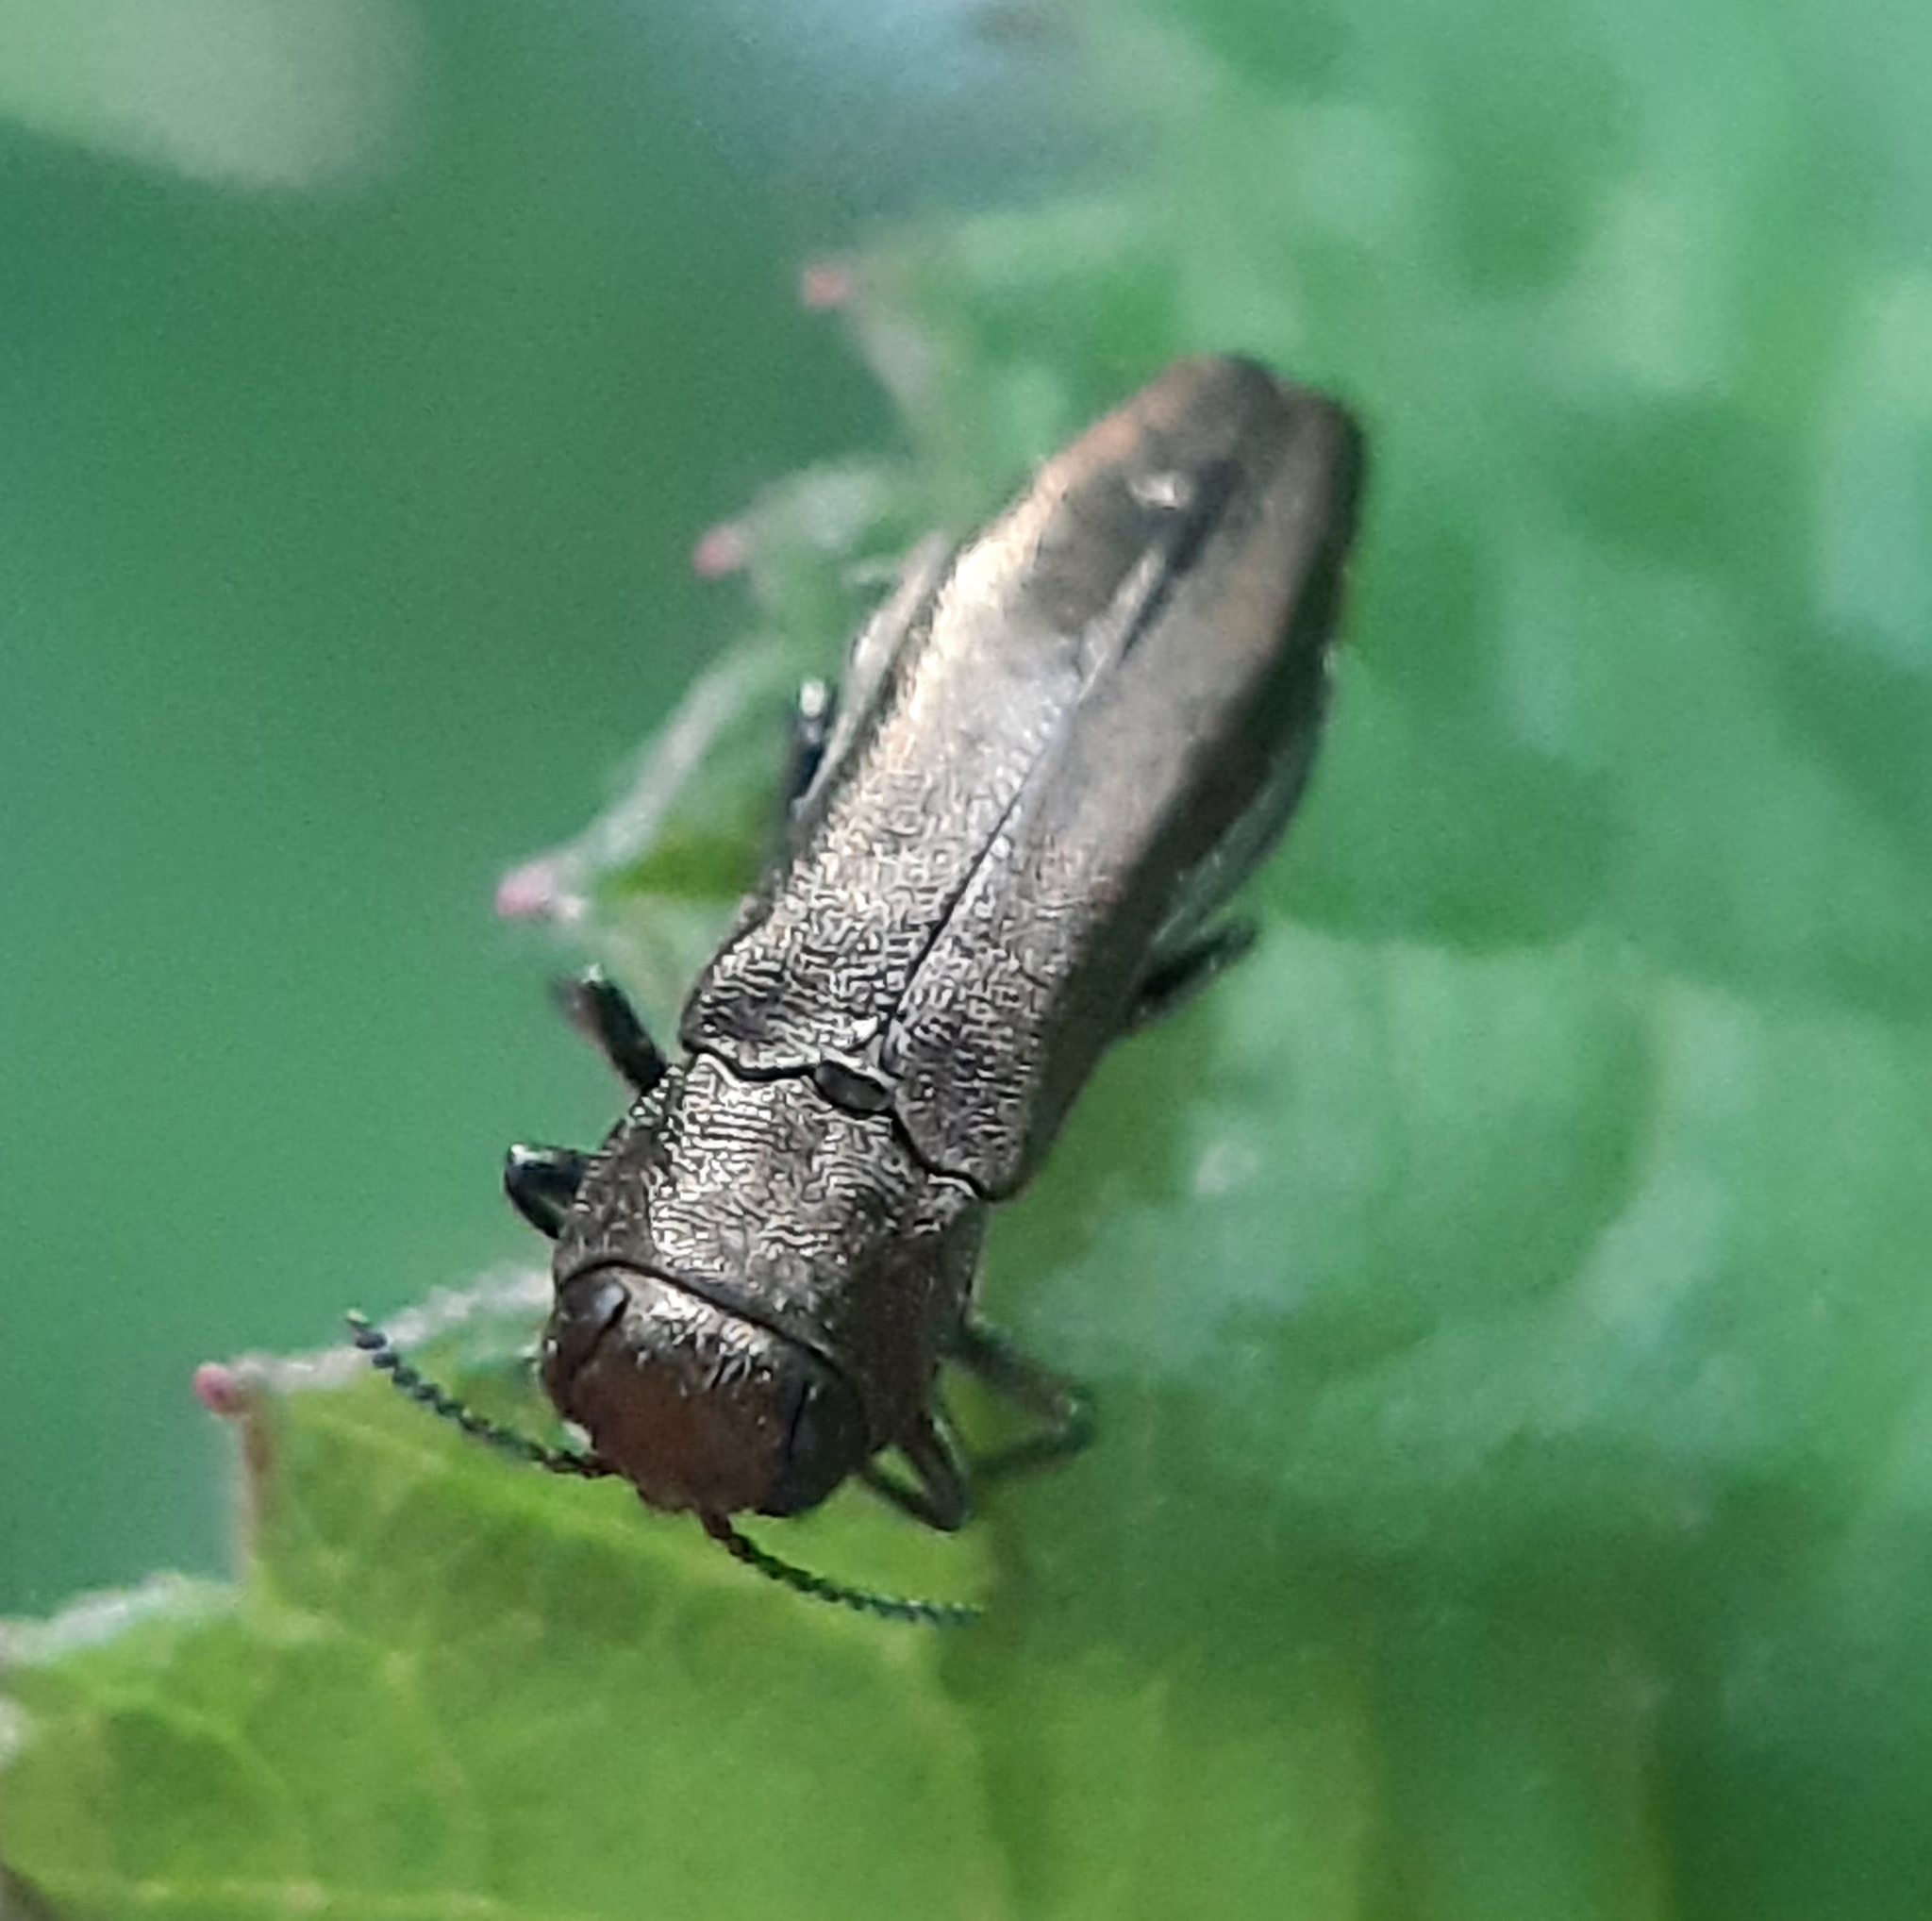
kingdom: Animalia
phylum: Arthropoda
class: Insecta
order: Coleoptera
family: Buprestidae
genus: Agrilus
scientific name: Agrilus cuprescens
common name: Rose stem girdler
